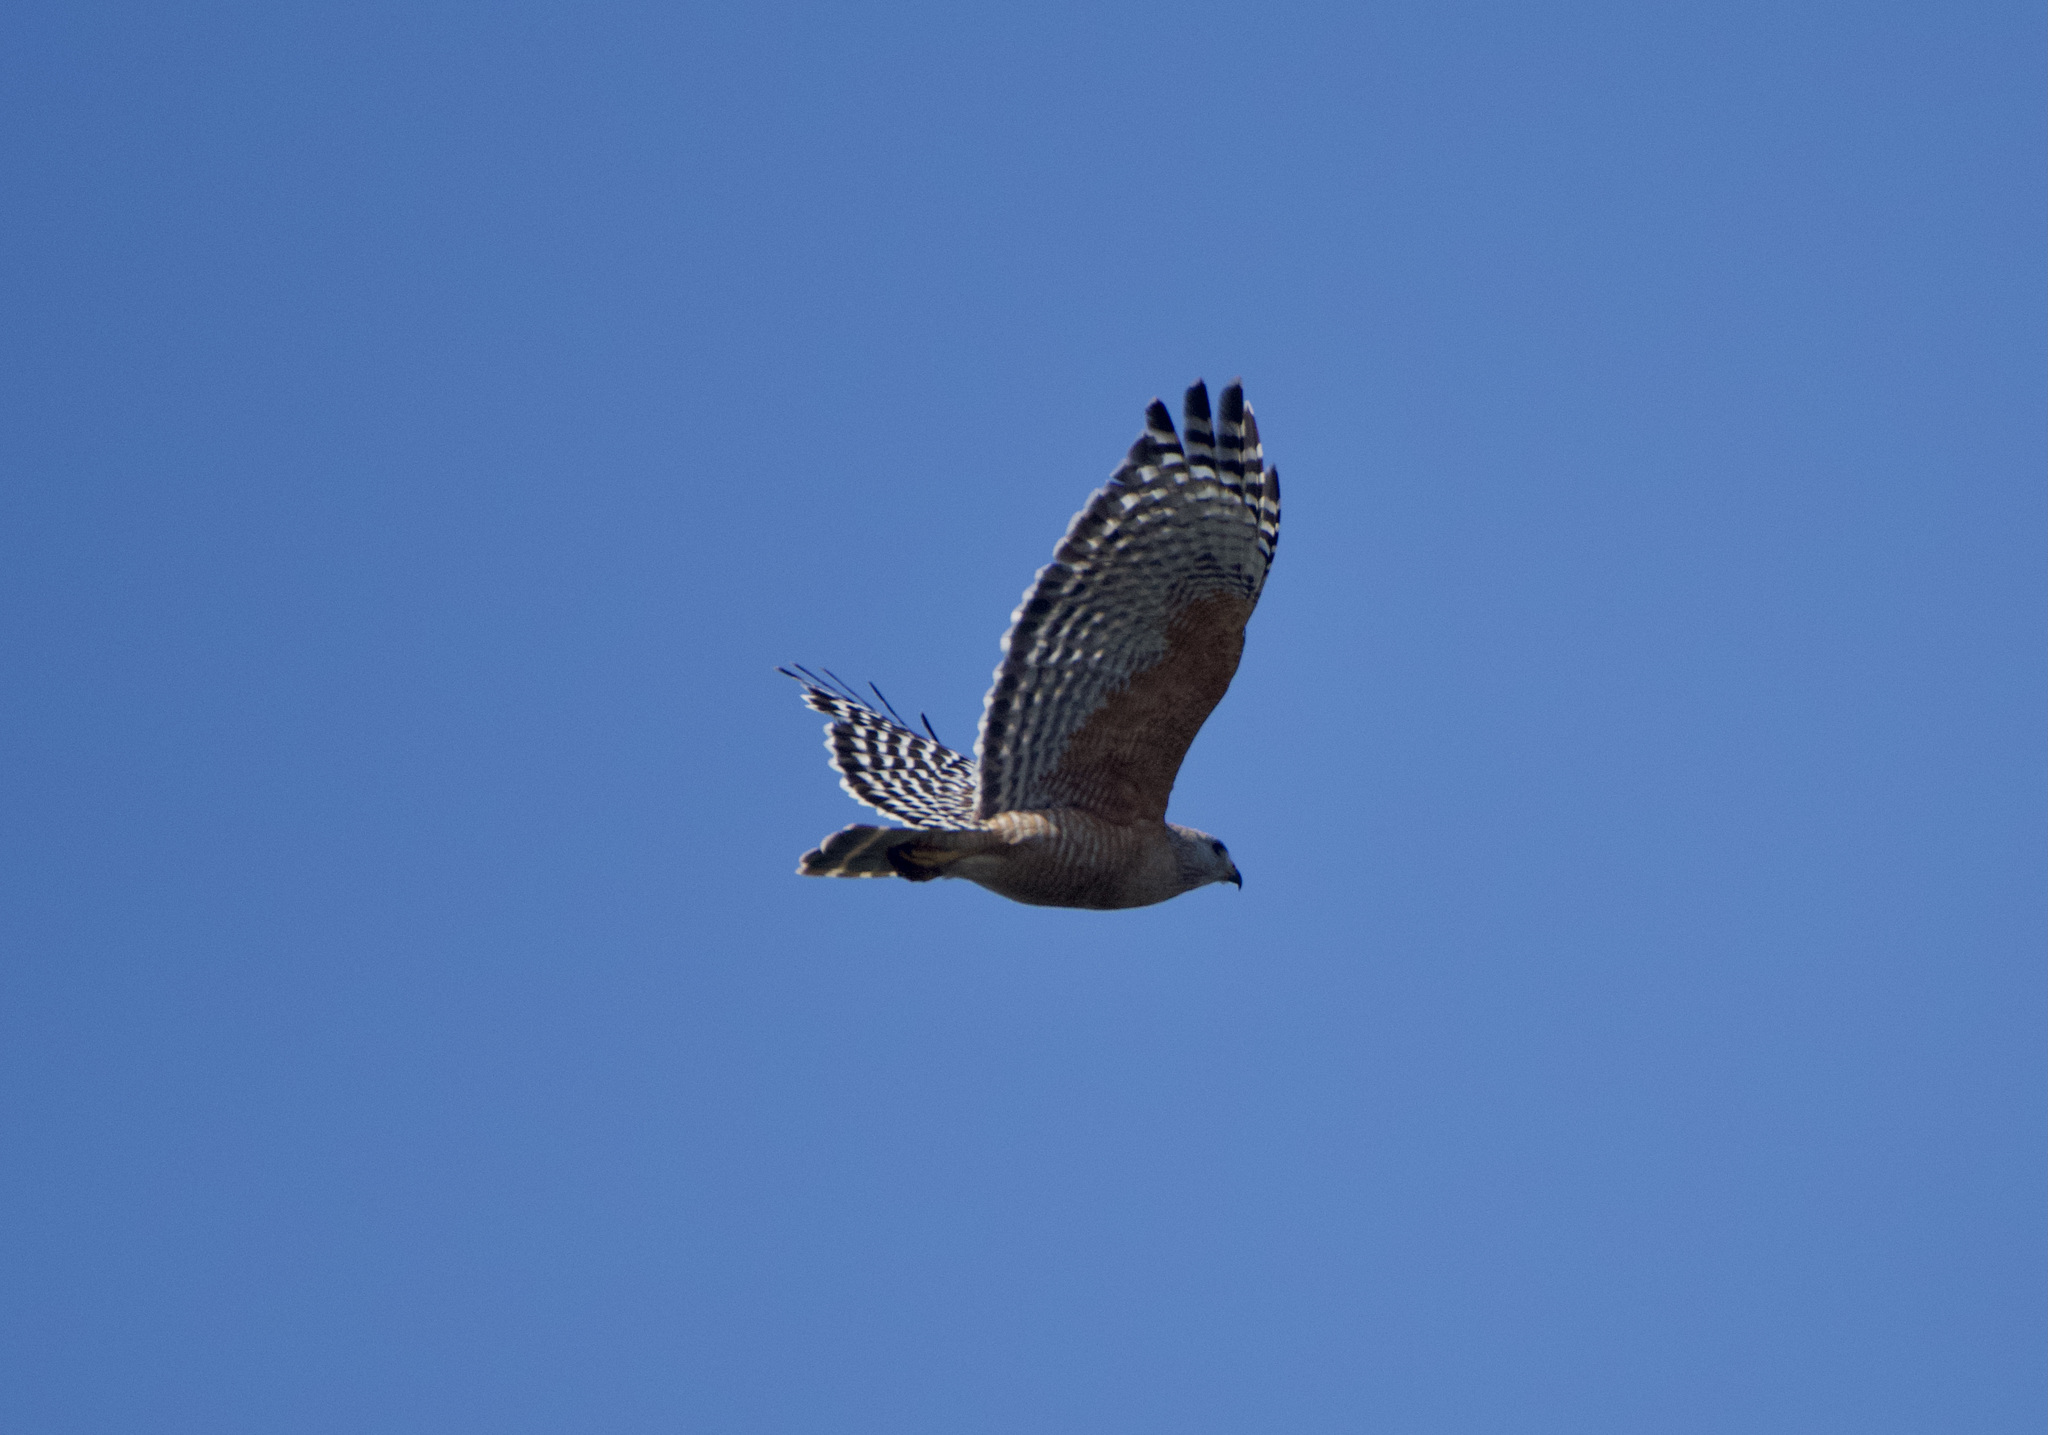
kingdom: Animalia
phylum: Chordata
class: Aves
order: Accipitriformes
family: Accipitridae
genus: Buteo
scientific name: Buteo lineatus
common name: Red-shouldered hawk
